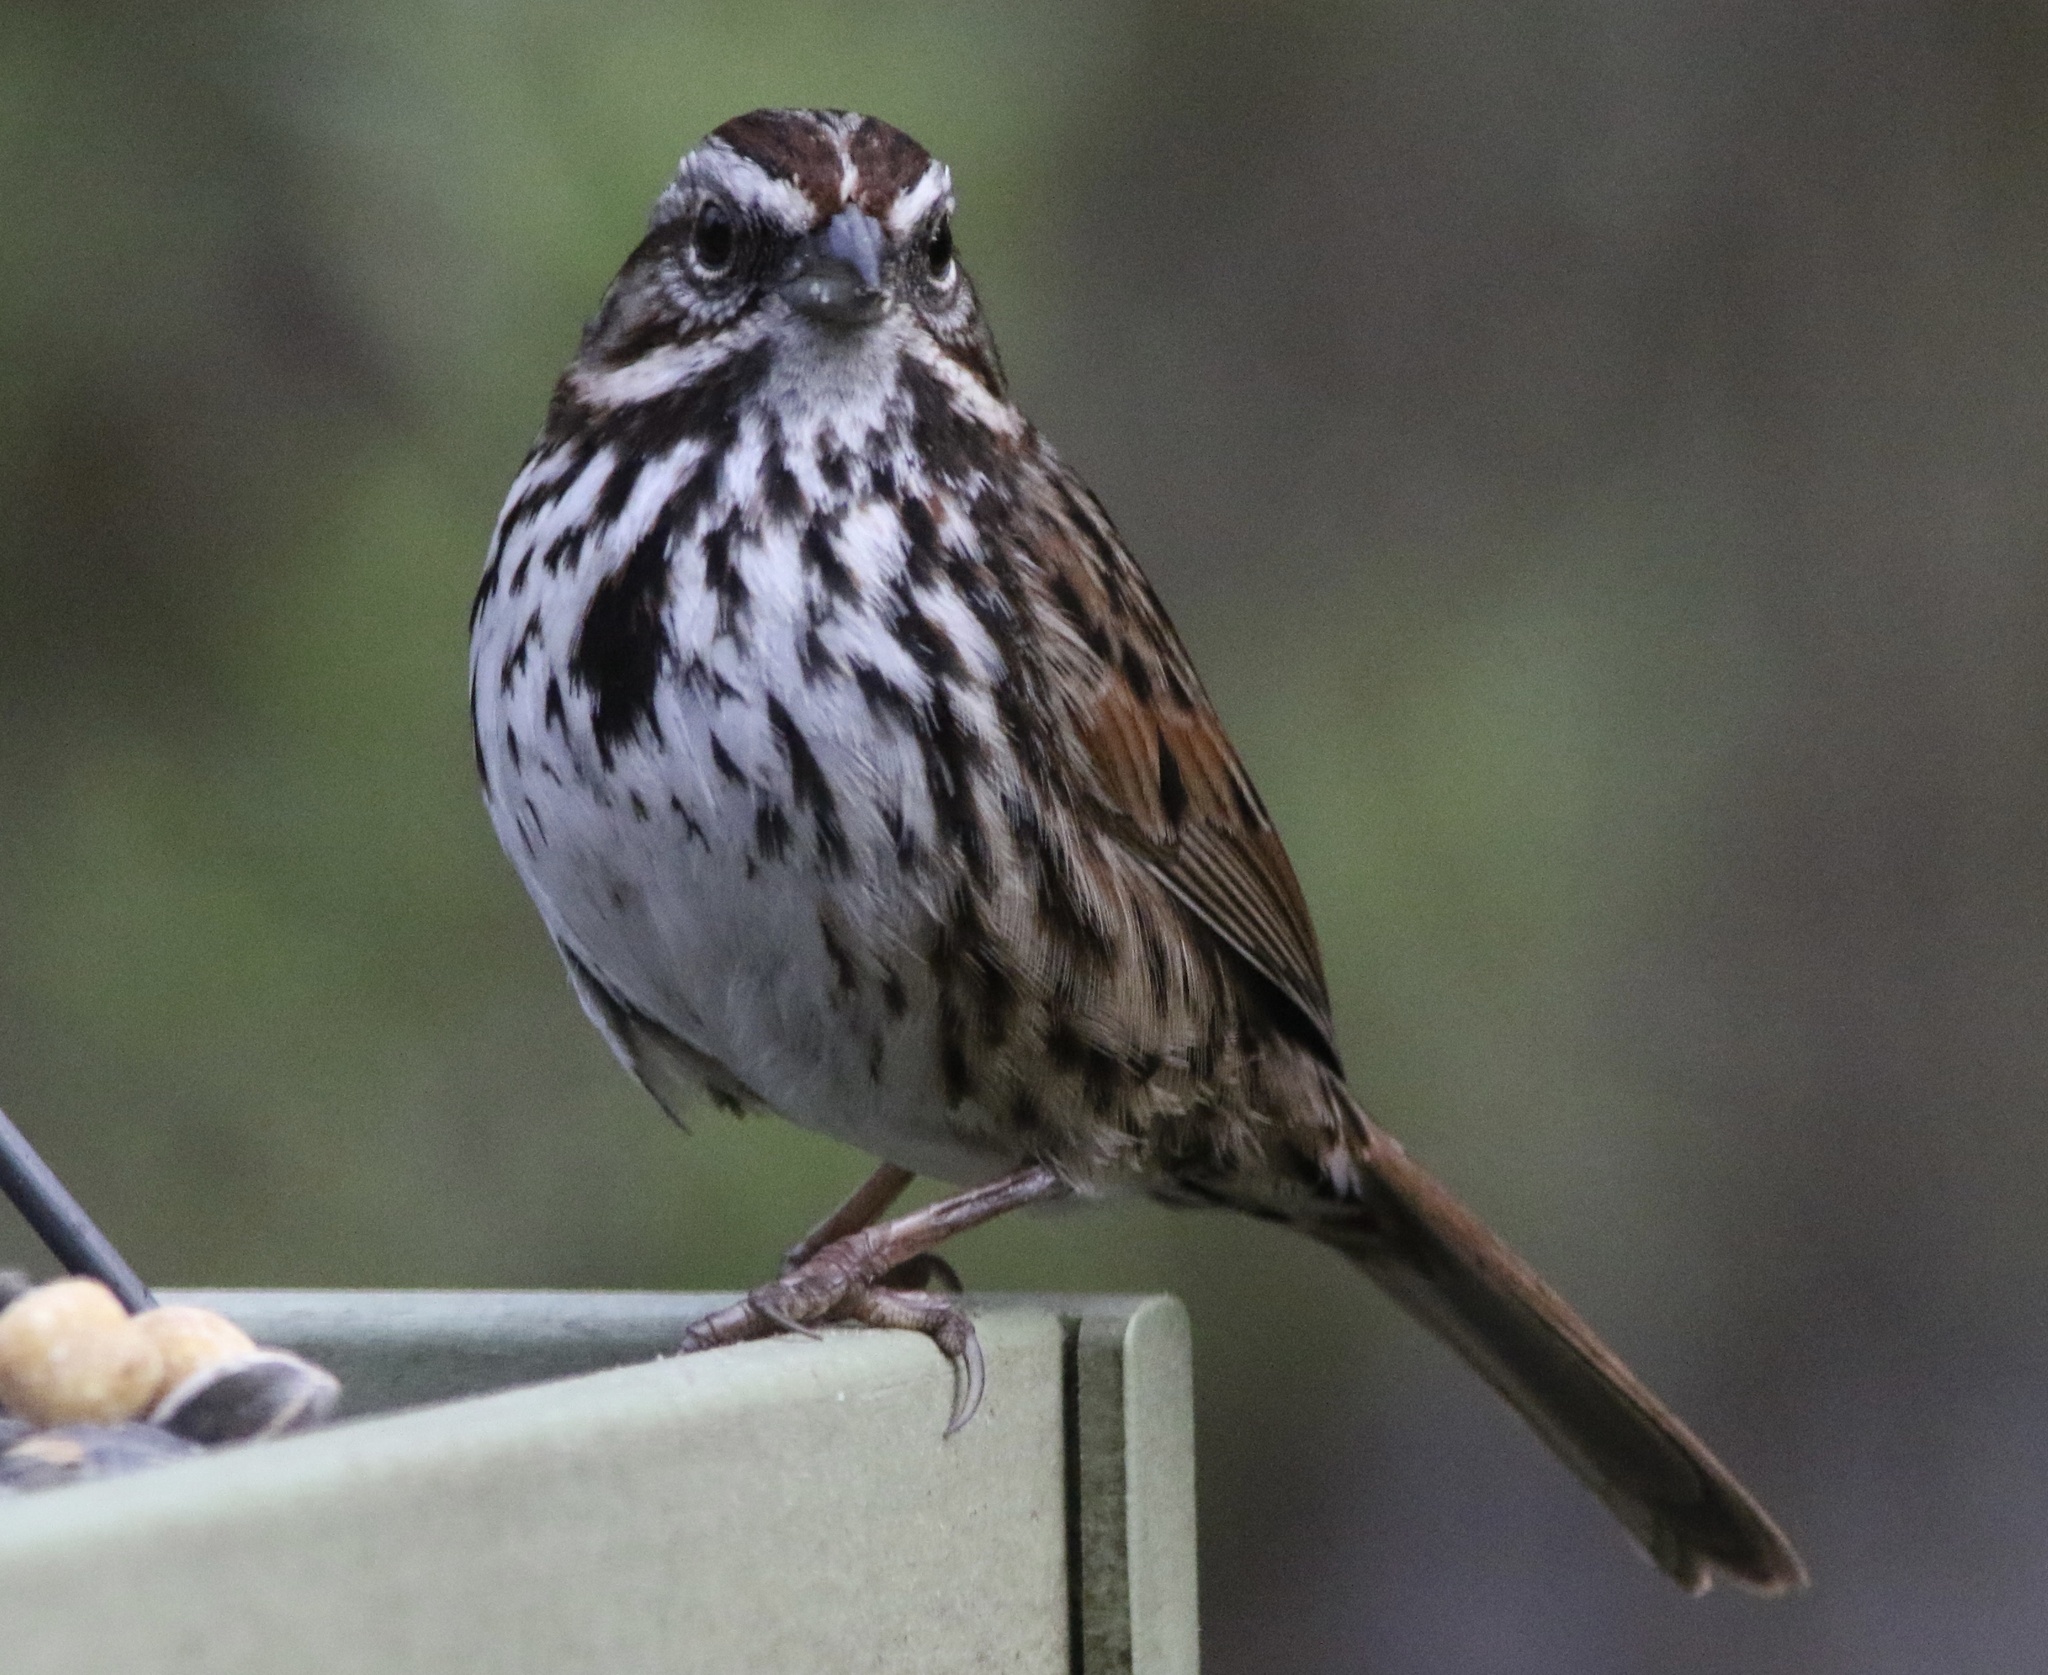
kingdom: Animalia
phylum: Chordata
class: Aves
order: Passeriformes
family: Passerellidae
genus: Melospiza
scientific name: Melospiza melodia
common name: Song sparrow
